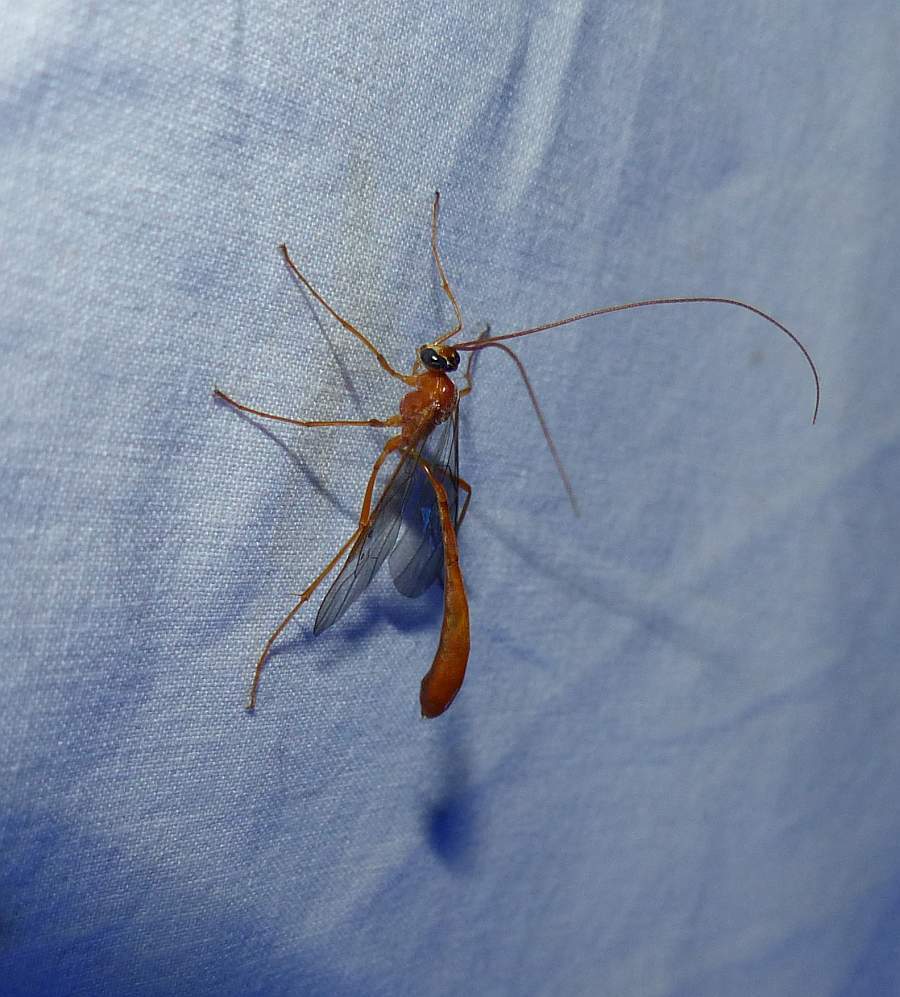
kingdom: Animalia
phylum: Arthropoda
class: Insecta
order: Hymenoptera
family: Ichneumonidae
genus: Enicospilus
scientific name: Enicospilus purgatus
